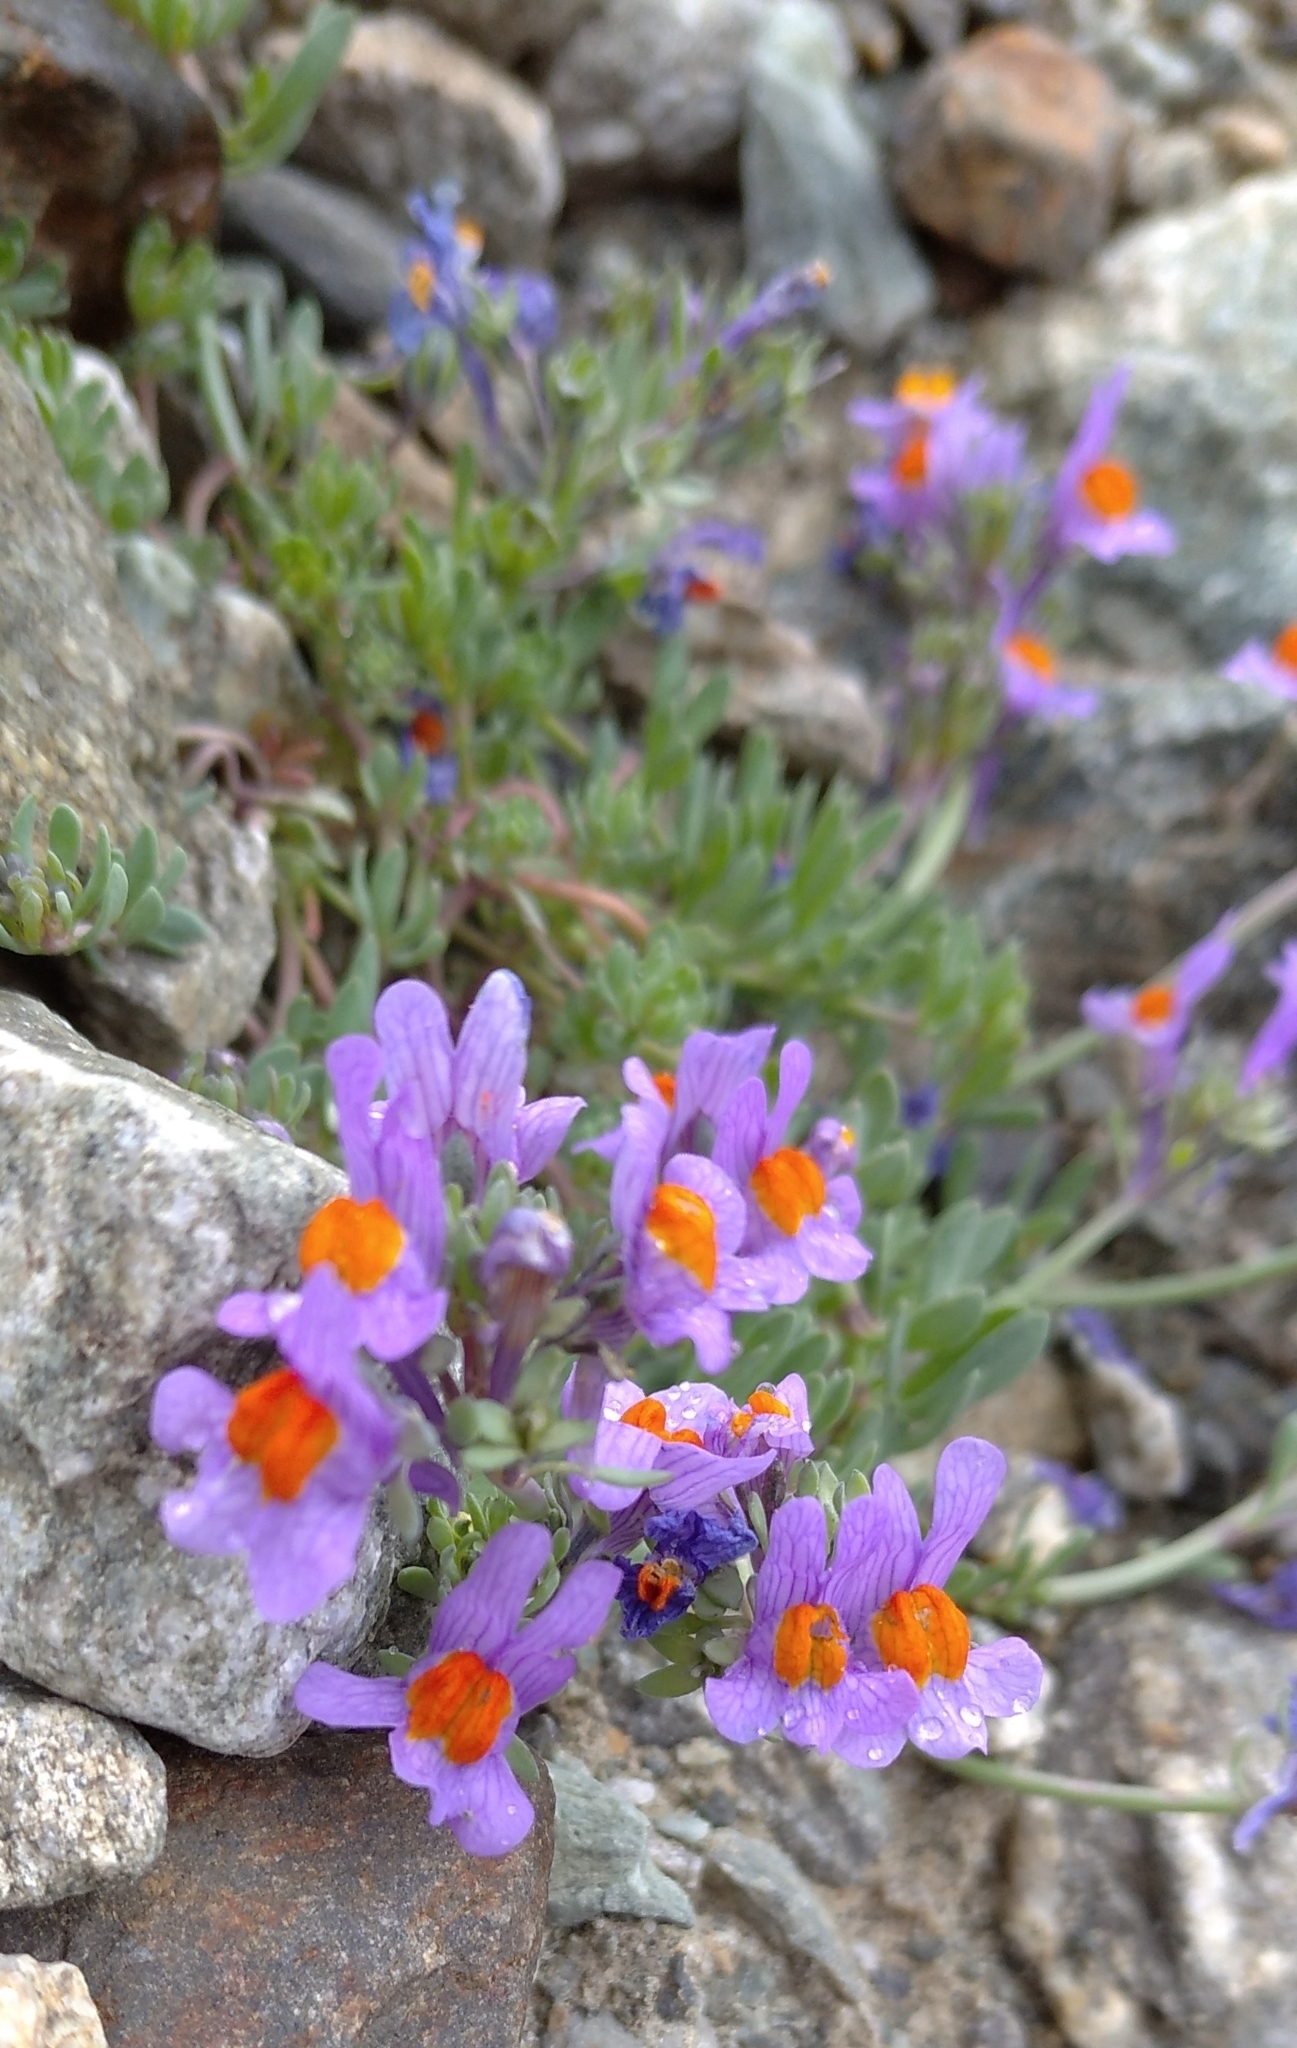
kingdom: Plantae
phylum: Tracheophyta
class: Magnoliopsida
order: Lamiales
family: Plantaginaceae
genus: Linaria
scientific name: Linaria alpina
